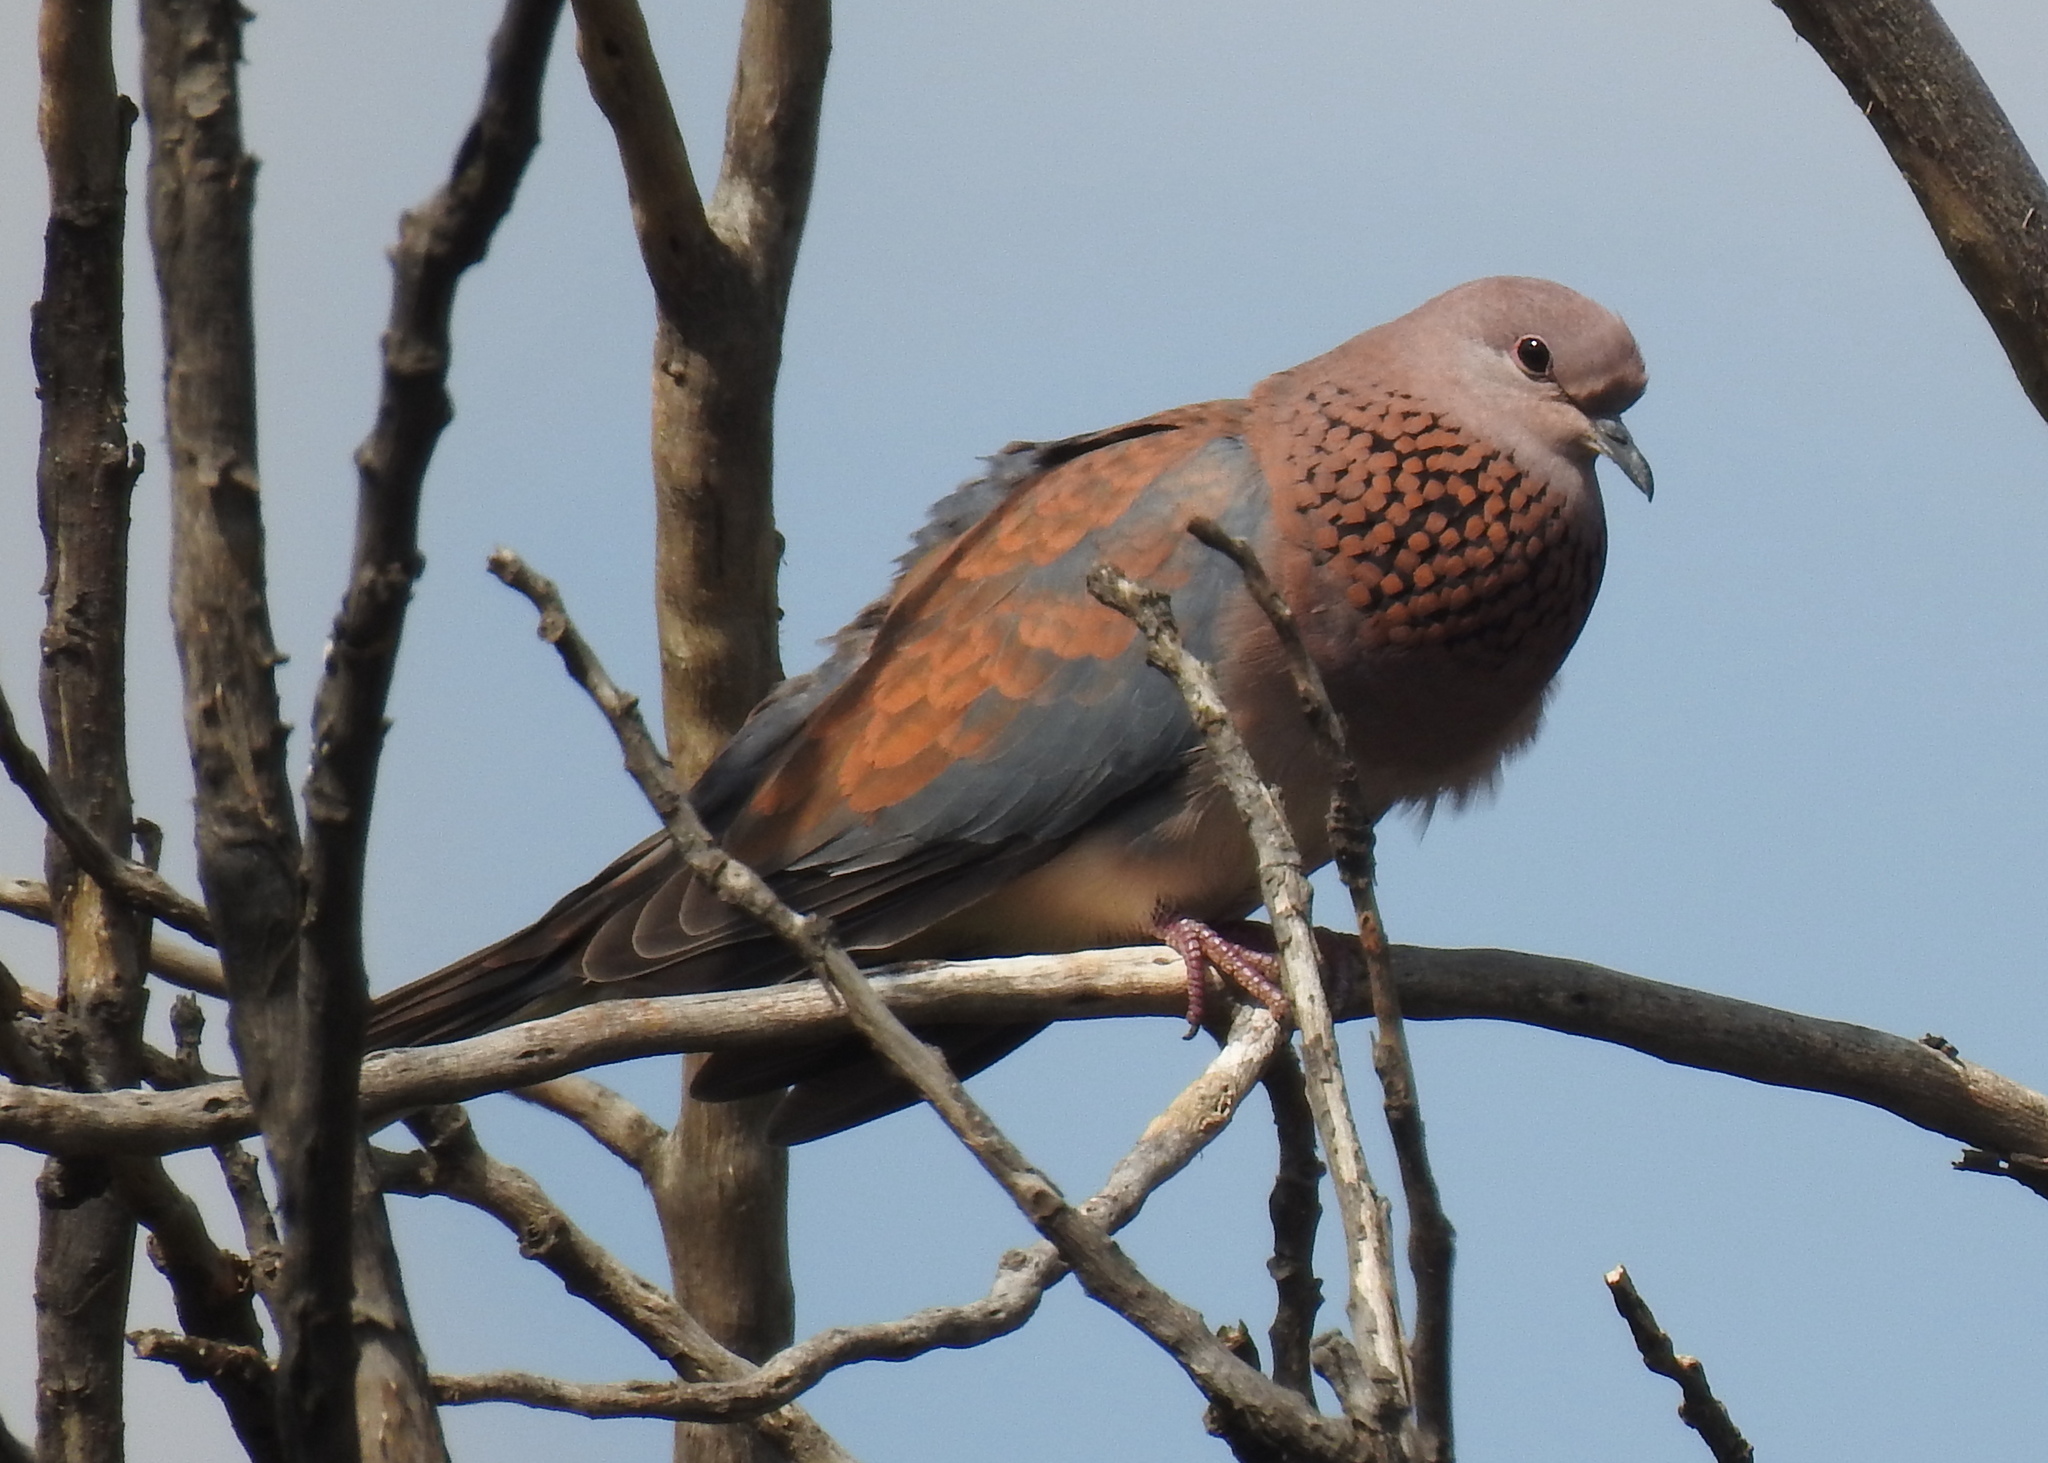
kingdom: Animalia
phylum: Chordata
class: Aves
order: Columbiformes
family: Columbidae
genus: Spilopelia
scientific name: Spilopelia senegalensis
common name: Laughing dove
